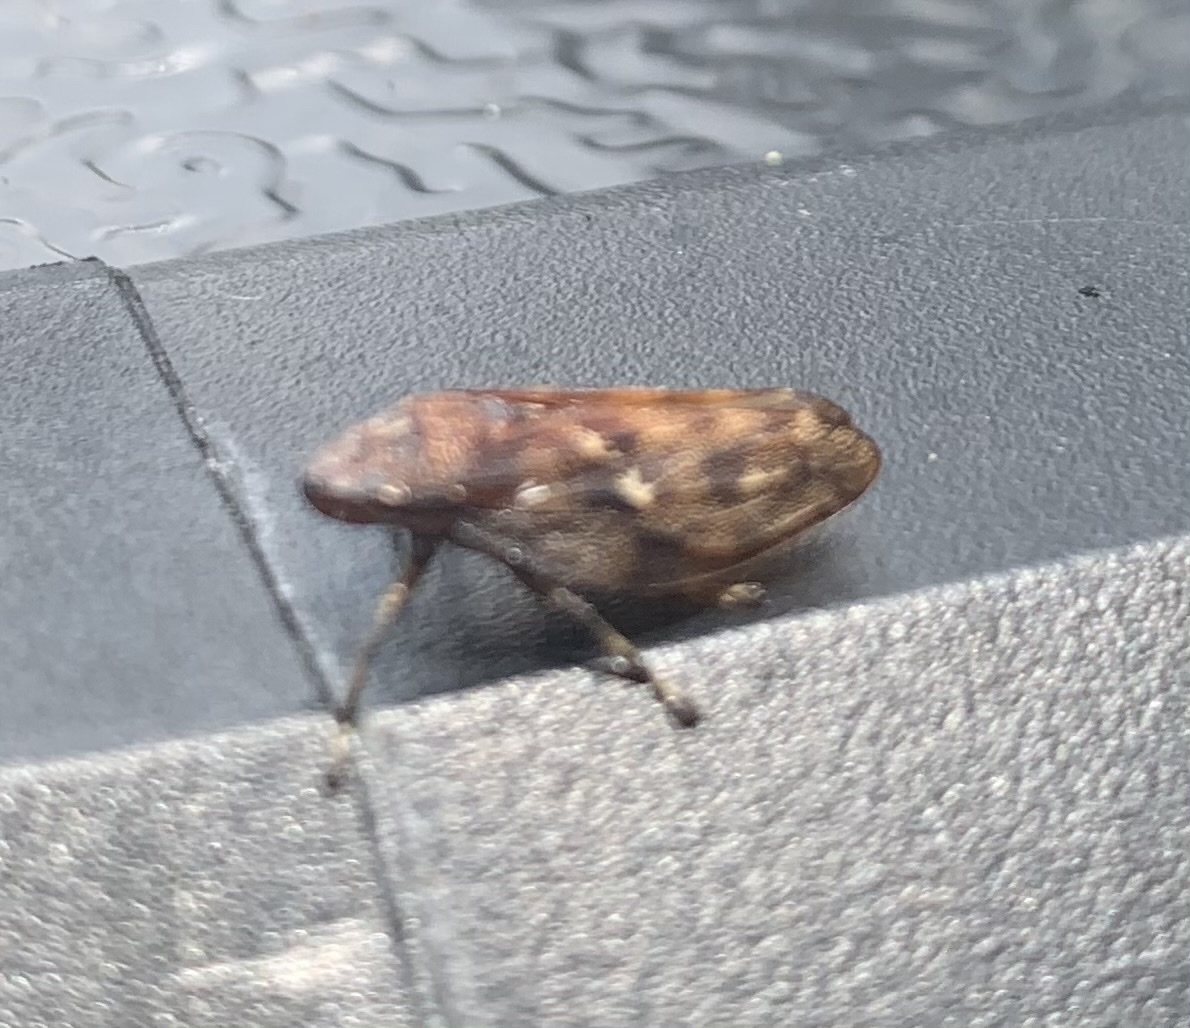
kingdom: Animalia
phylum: Arthropoda
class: Insecta
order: Hemiptera
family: Epipygidae
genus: Epipyga
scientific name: Epipyga cribrata
